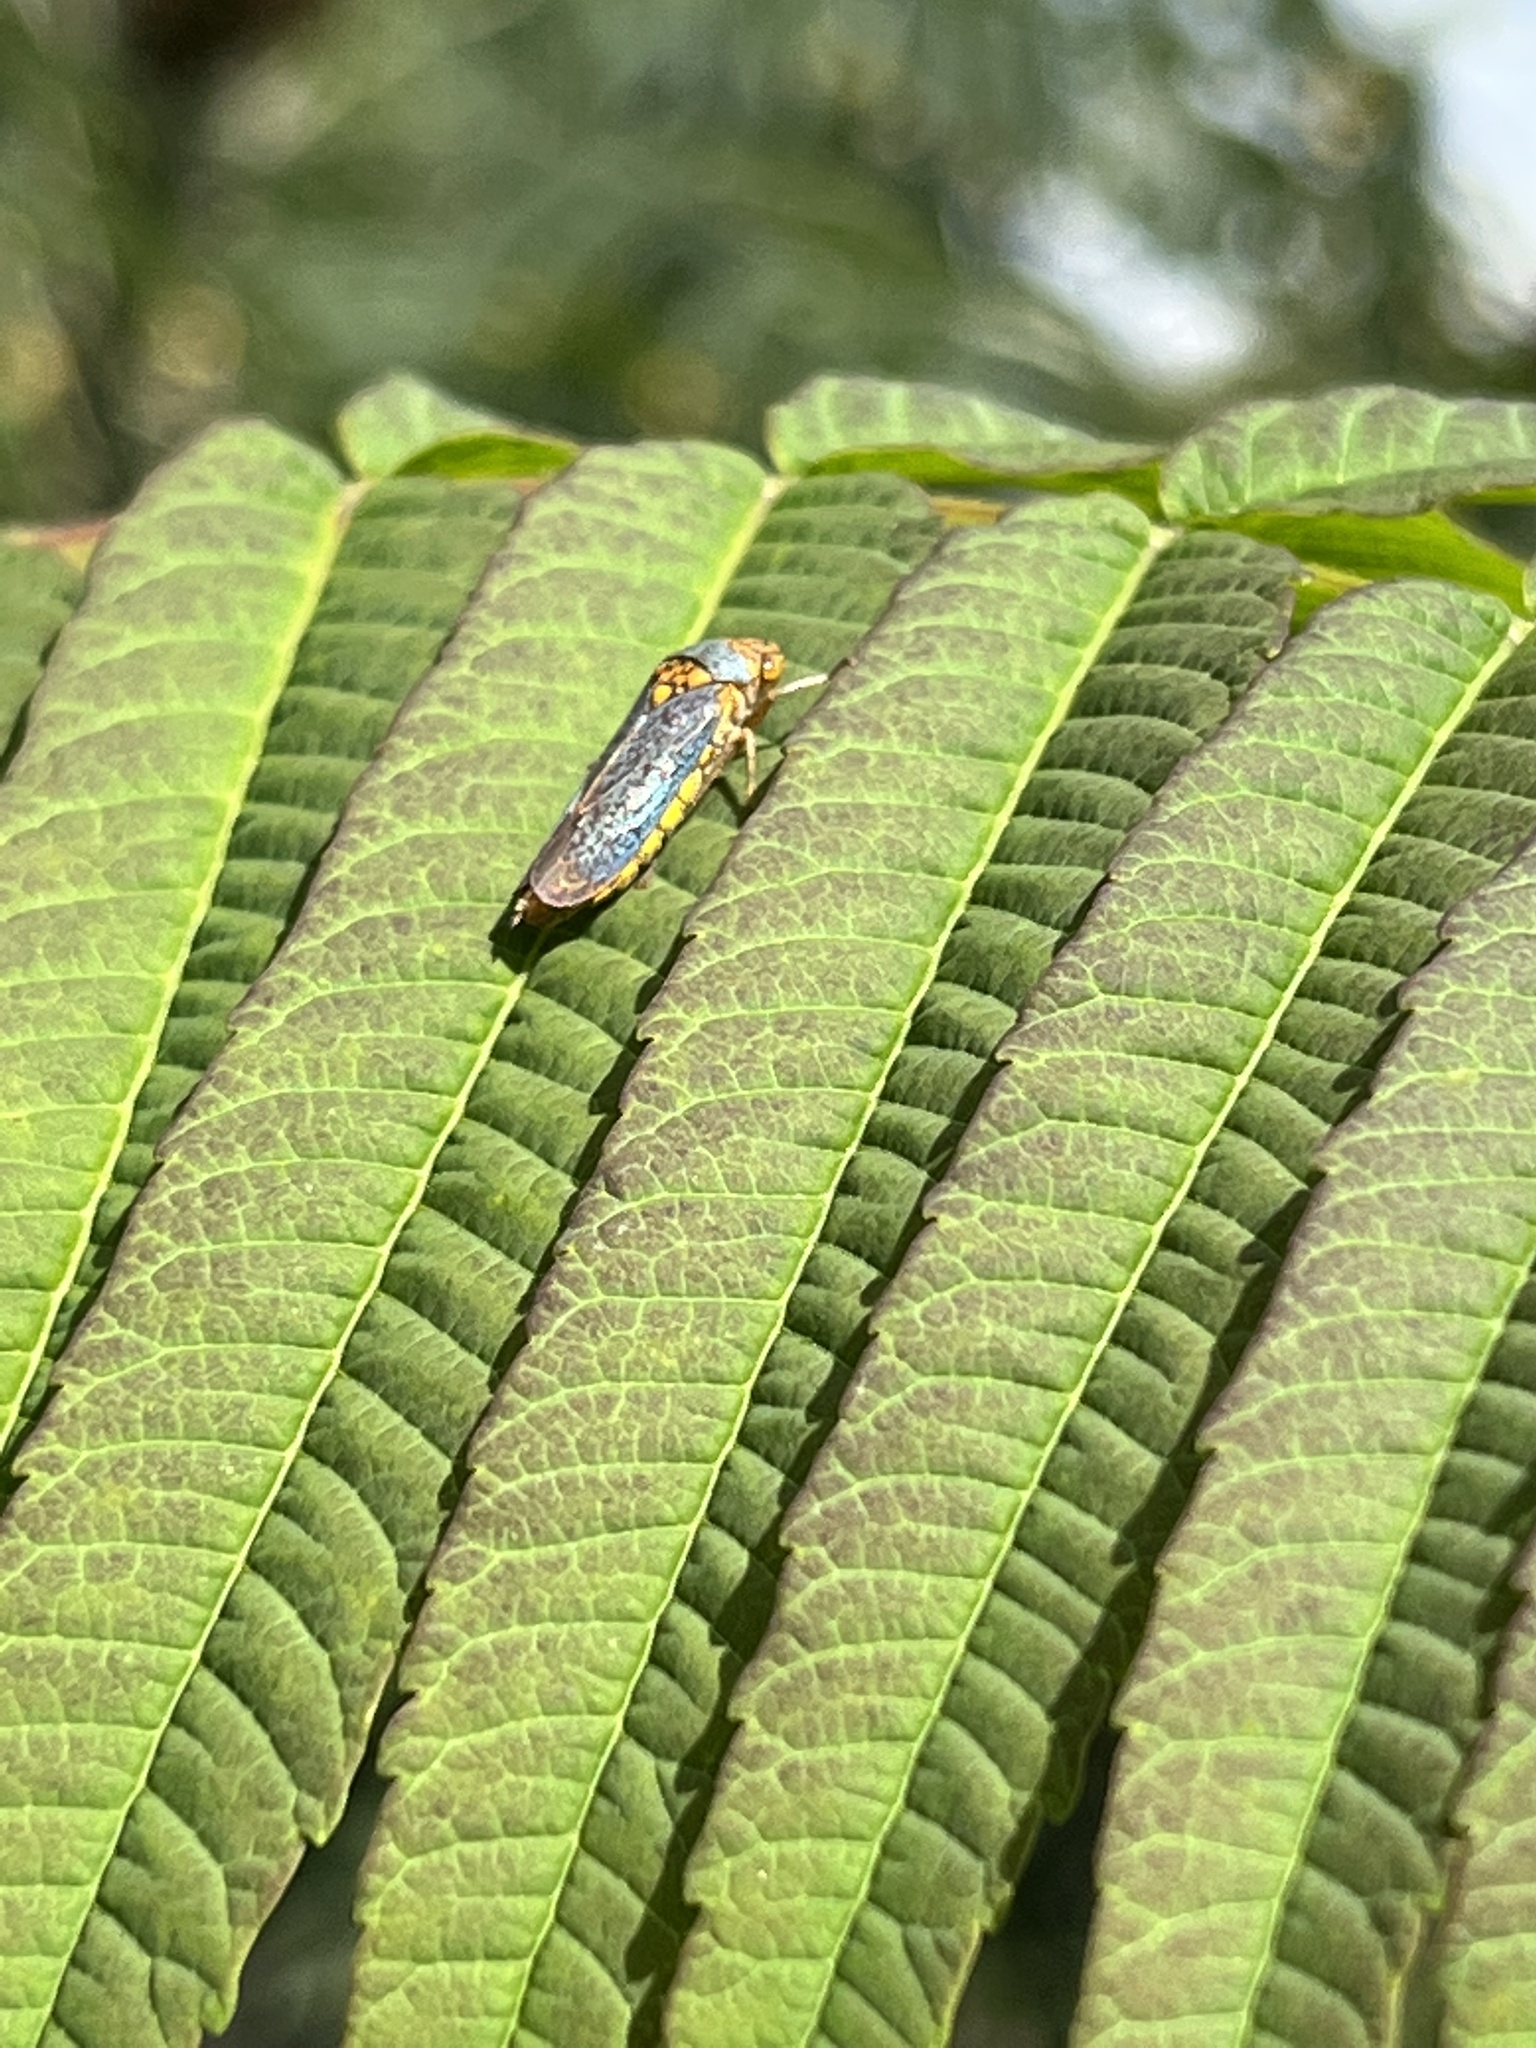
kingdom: Animalia
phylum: Arthropoda
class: Insecta
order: Hemiptera
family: Cicadellidae
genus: Oncometopia
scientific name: Oncometopia orbona
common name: Broad-headed sharpshooter
